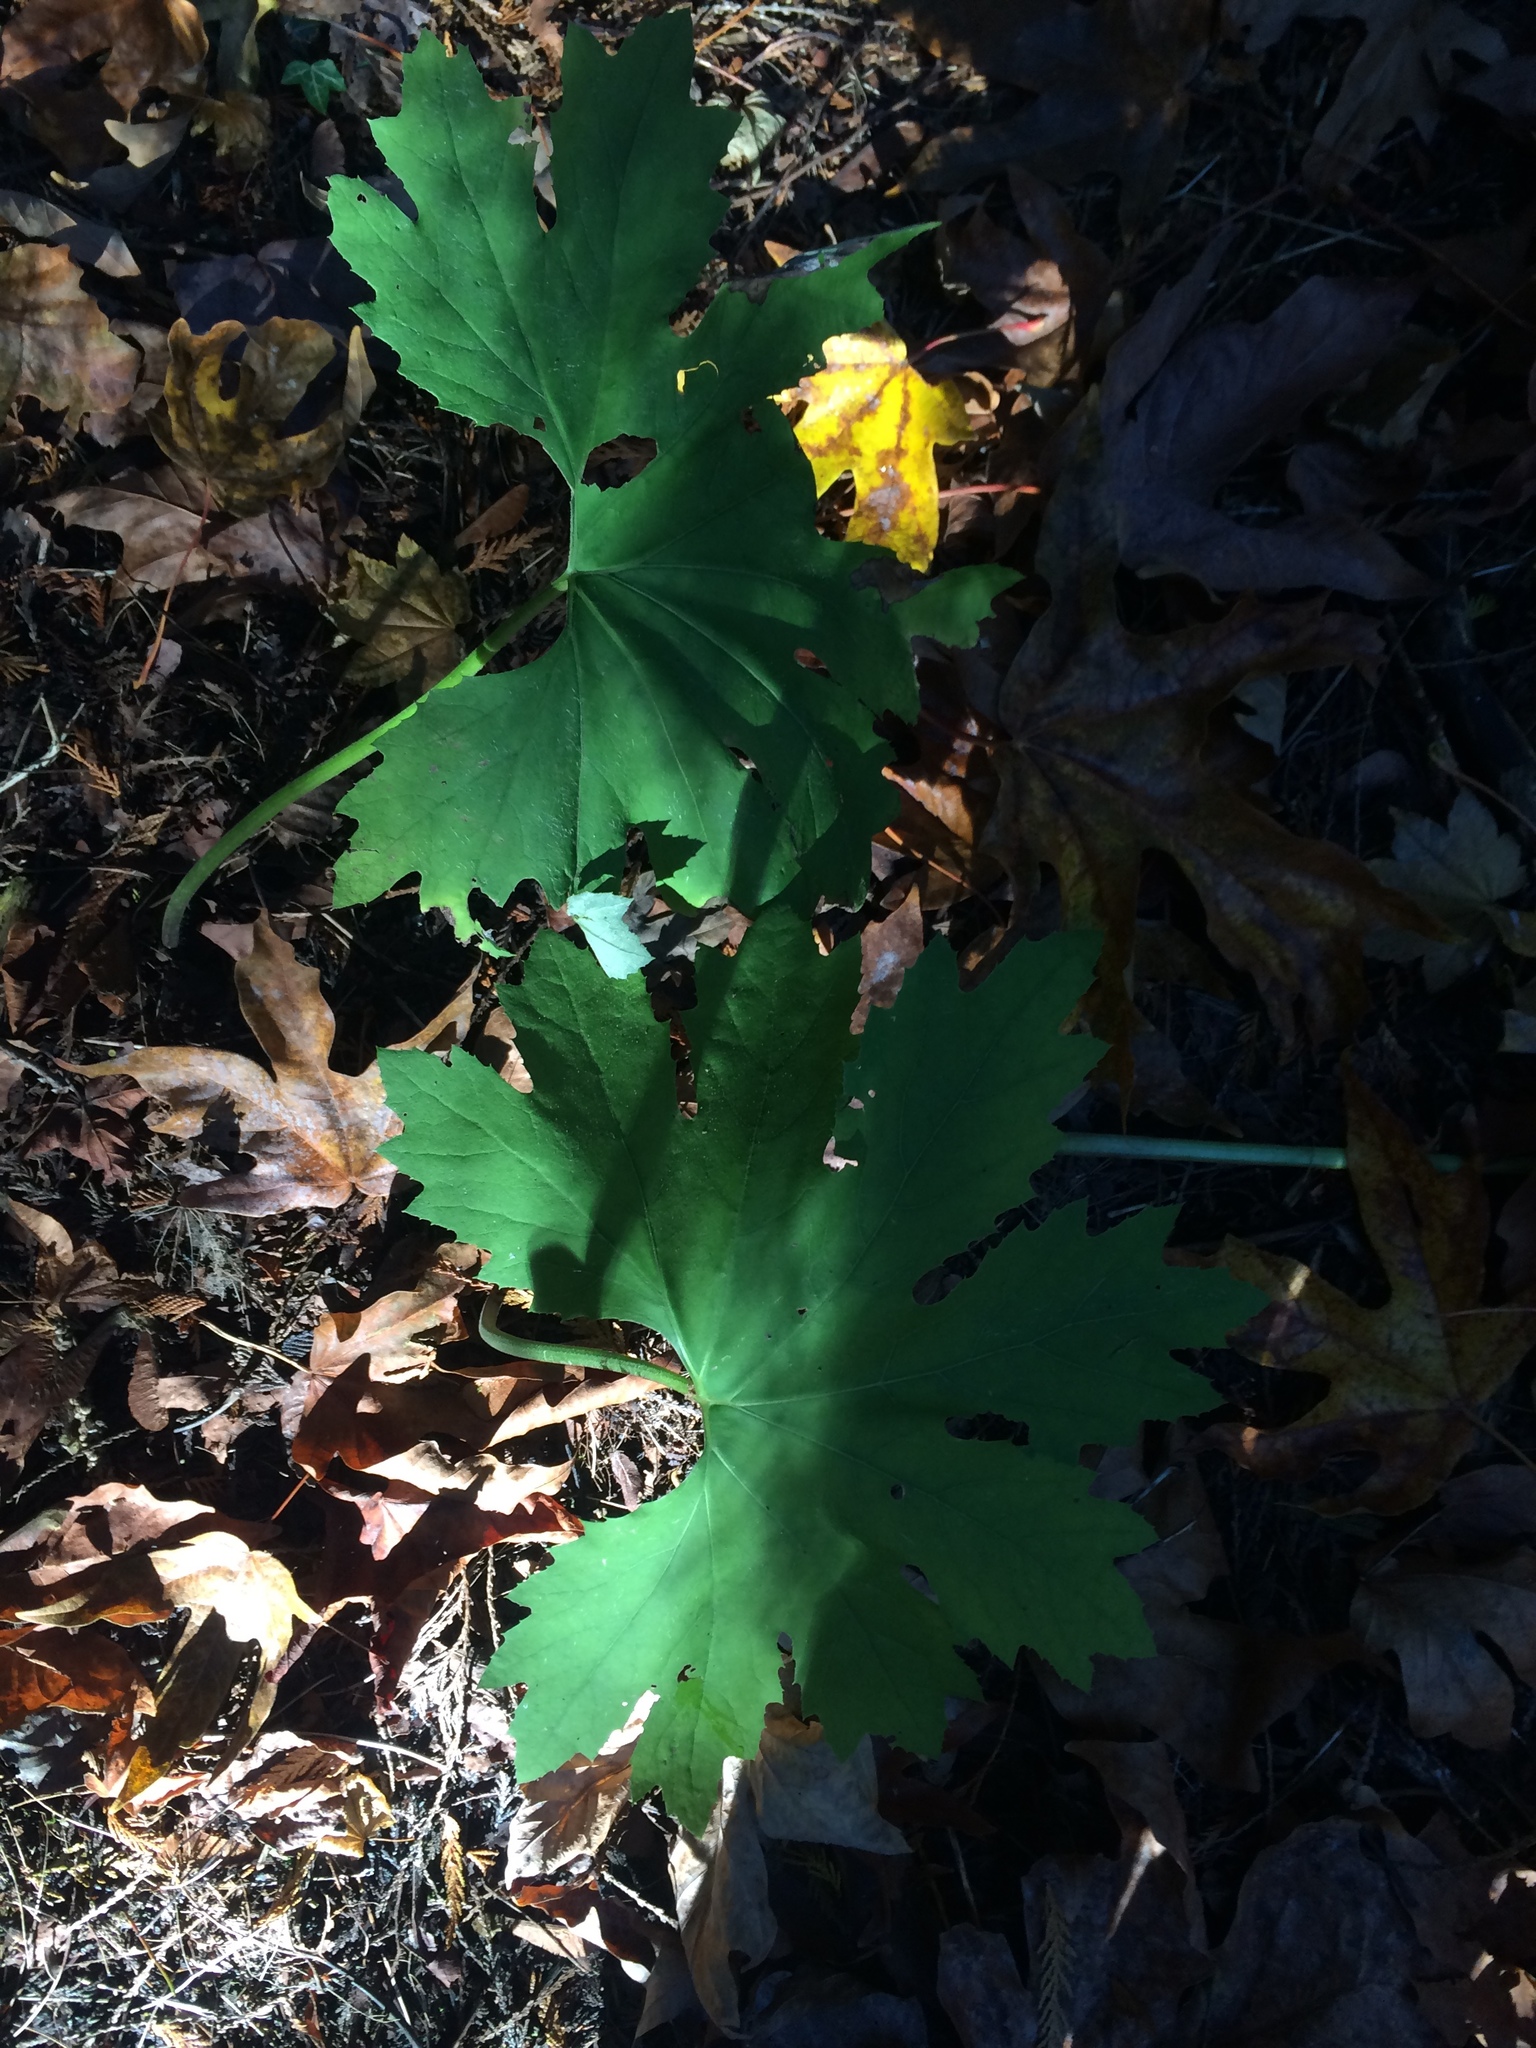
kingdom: Plantae
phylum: Tracheophyta
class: Magnoliopsida
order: Asterales
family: Asteraceae
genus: Petasites
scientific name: Petasites frigidus
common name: Arctic butterbur
